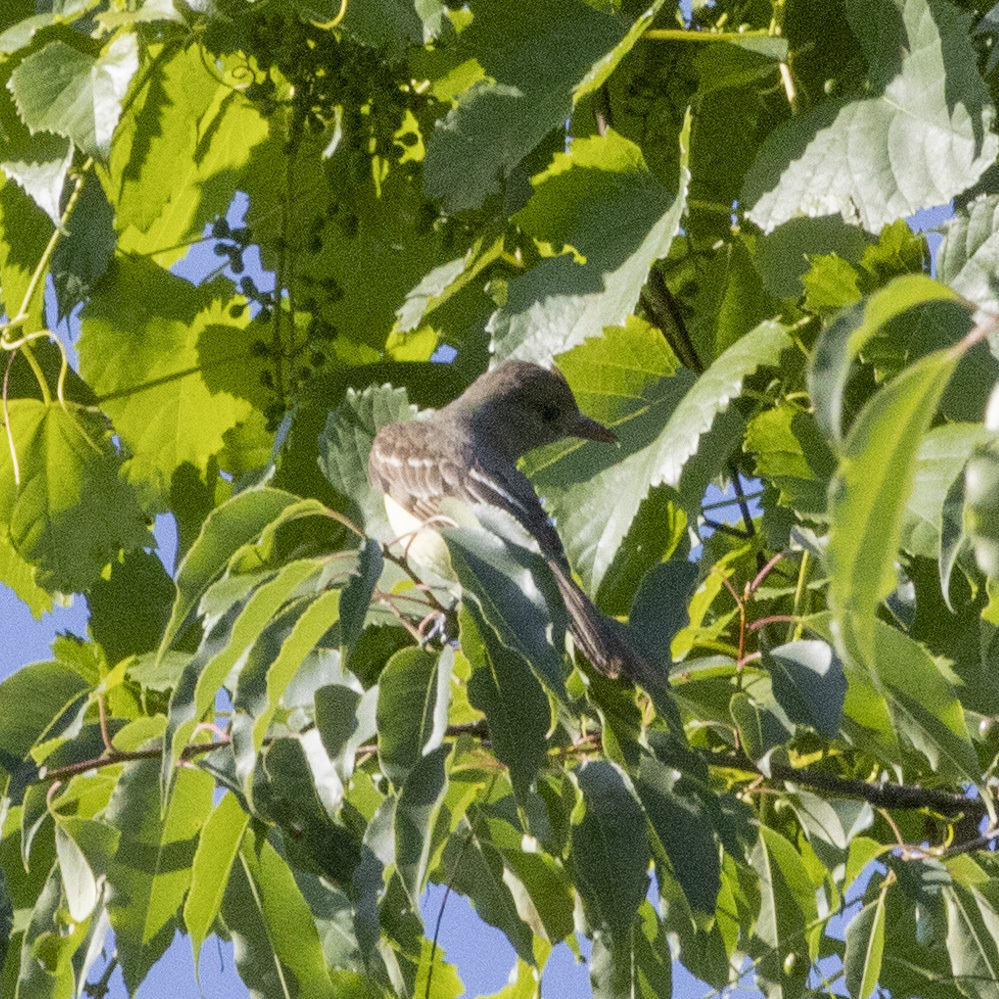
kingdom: Animalia
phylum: Chordata
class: Aves
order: Passeriformes
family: Tyrannidae
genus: Myiarchus
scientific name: Myiarchus crinitus
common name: Great crested flycatcher
